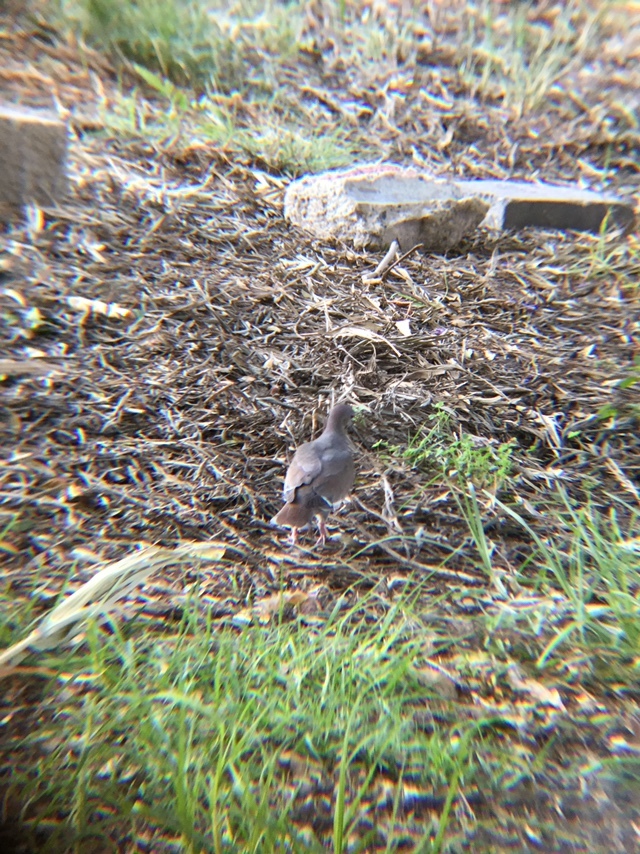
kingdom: Animalia
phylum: Chordata
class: Aves
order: Columbiformes
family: Columbidae
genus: Zenaida
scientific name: Zenaida asiatica
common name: White-winged dove
